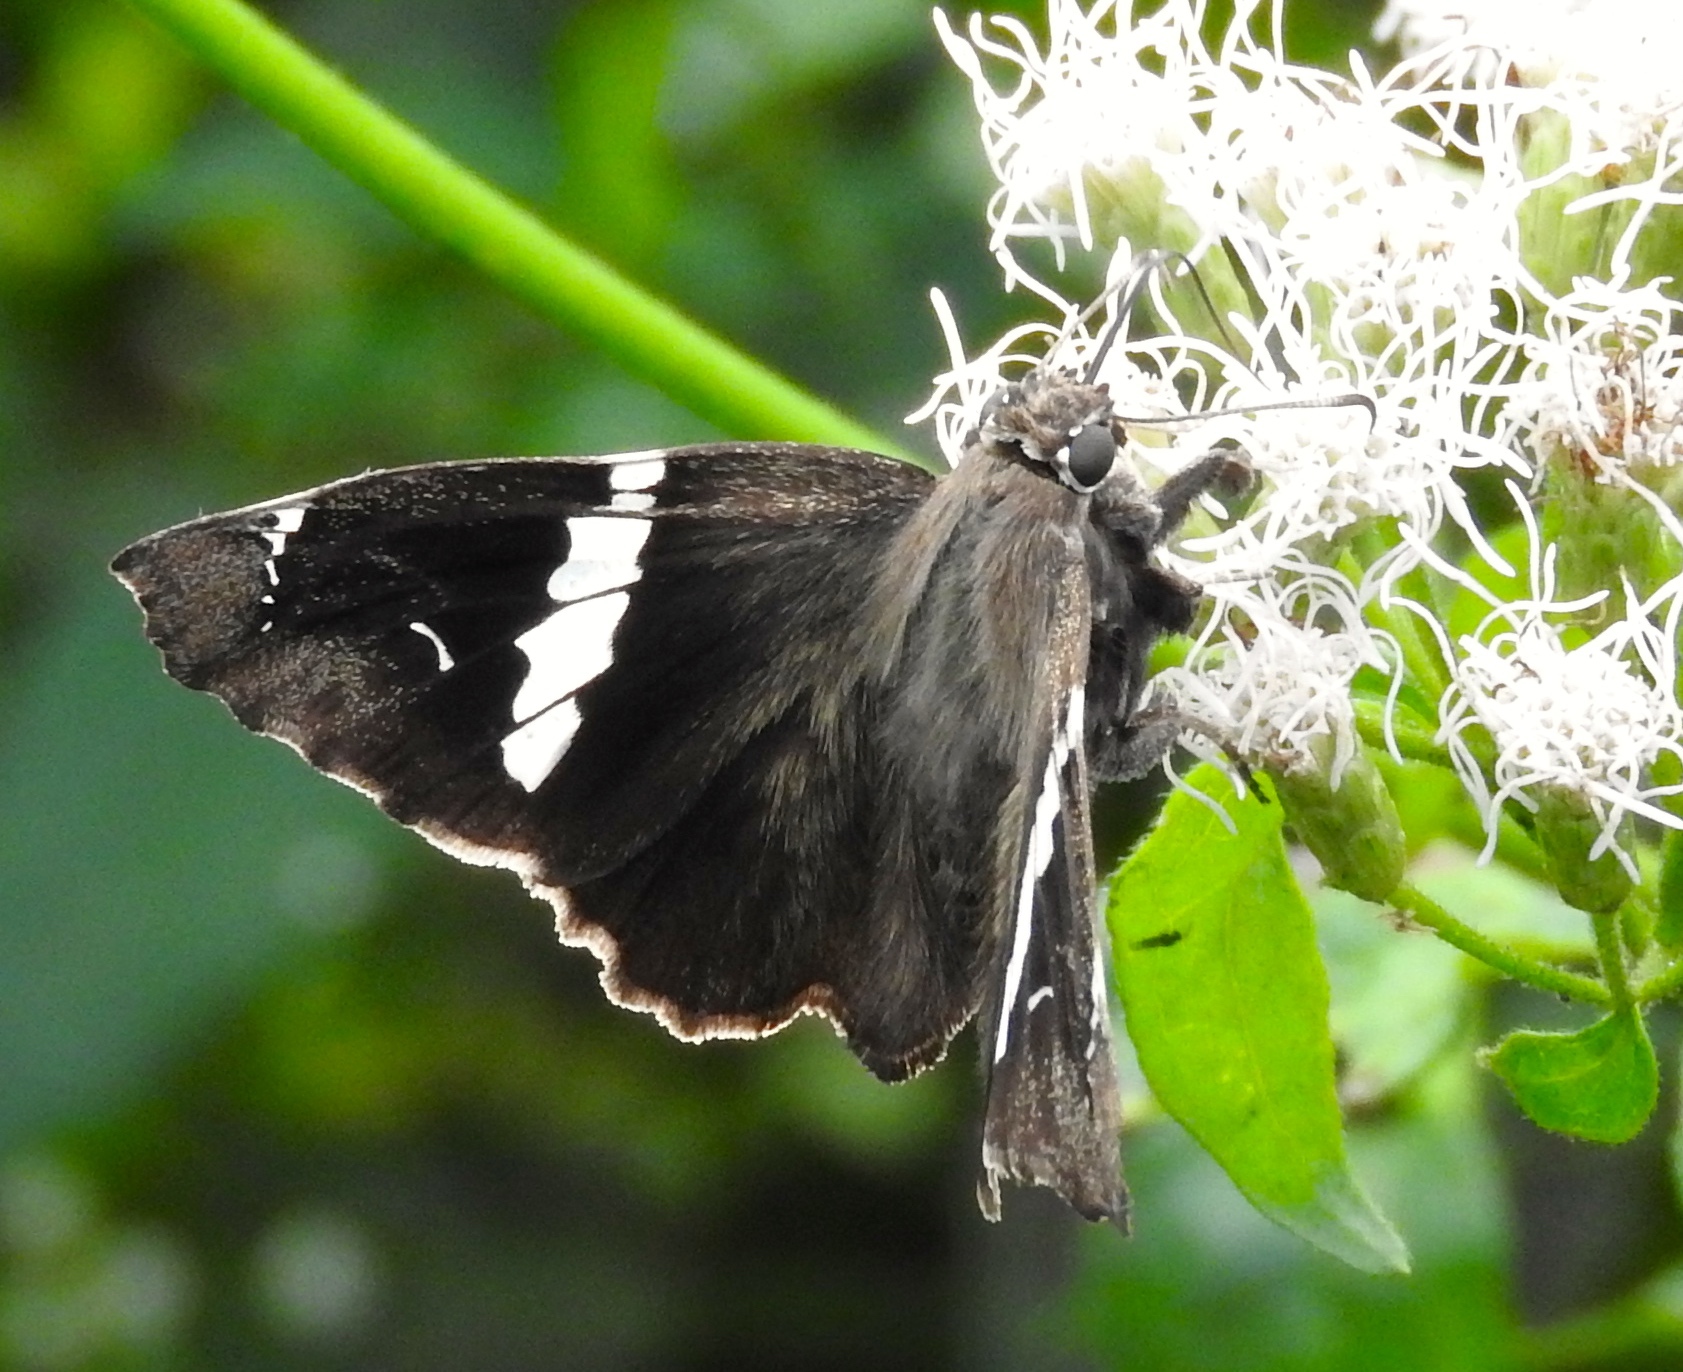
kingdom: Animalia
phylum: Arthropoda
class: Insecta
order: Lepidoptera
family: Hesperiidae
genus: Spathilepia
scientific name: Spathilepia clonius
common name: Falcate skipper
